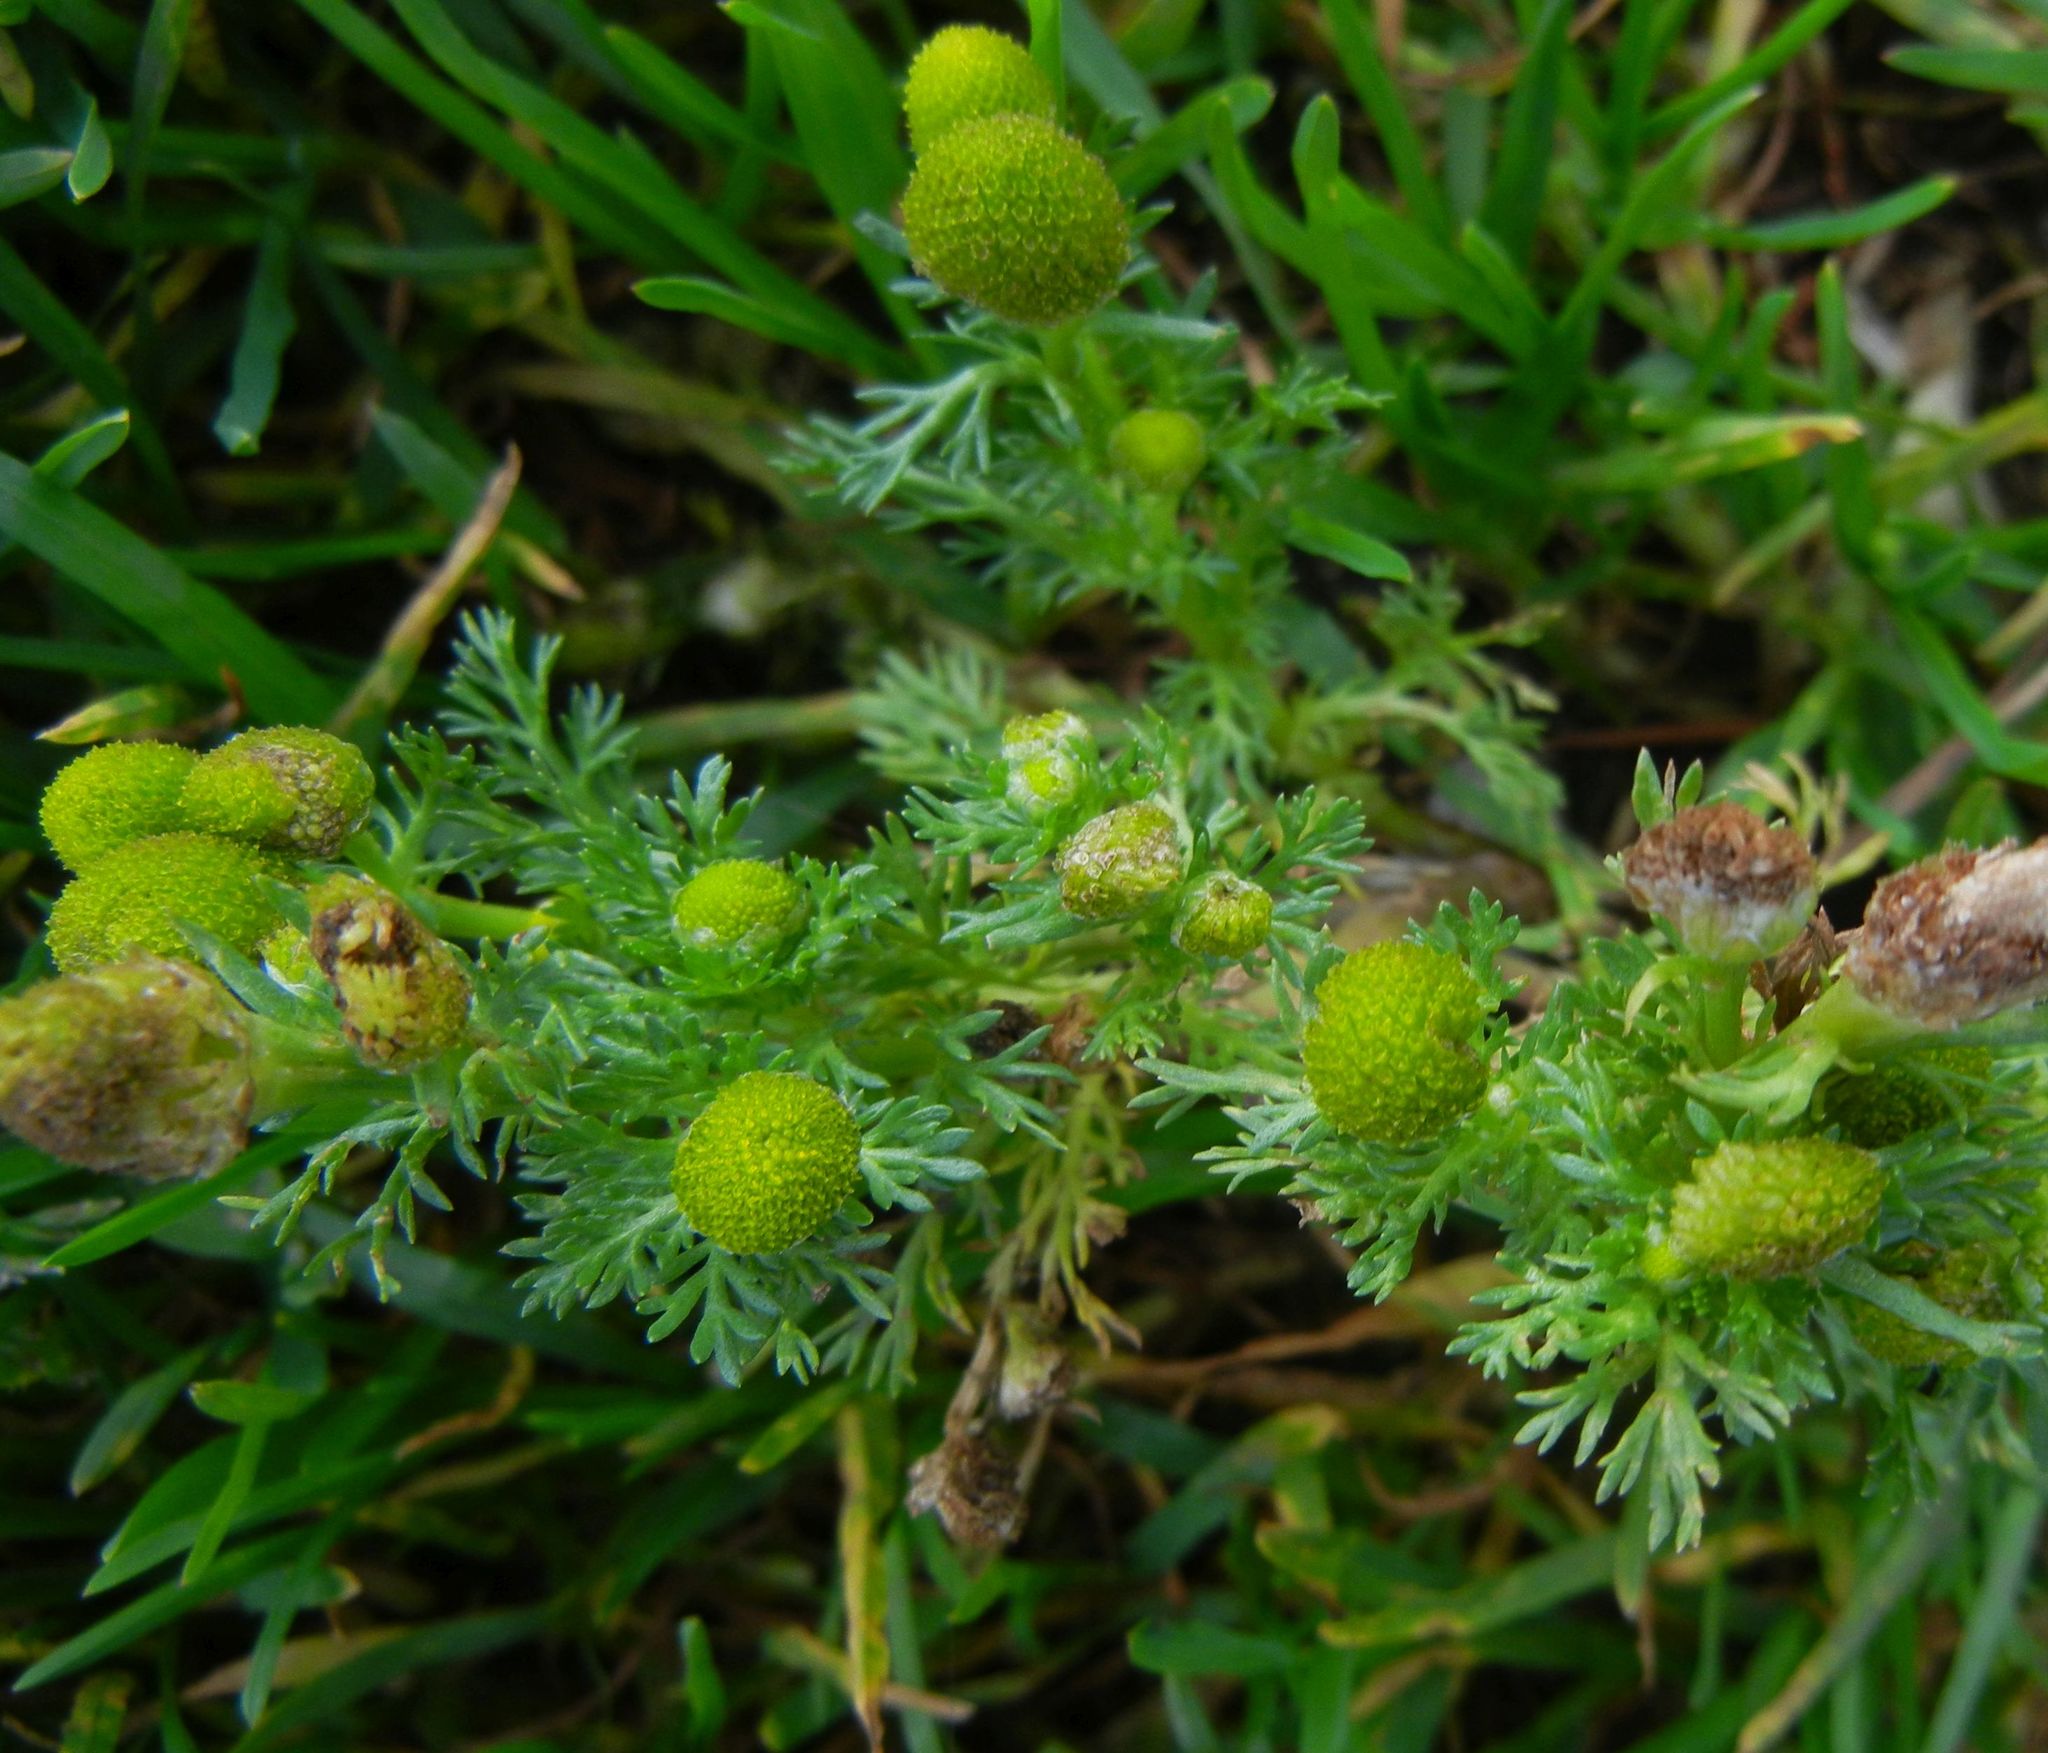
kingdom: Plantae
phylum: Tracheophyta
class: Magnoliopsida
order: Asterales
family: Asteraceae
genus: Matricaria
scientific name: Matricaria discoidea
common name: Disc mayweed
